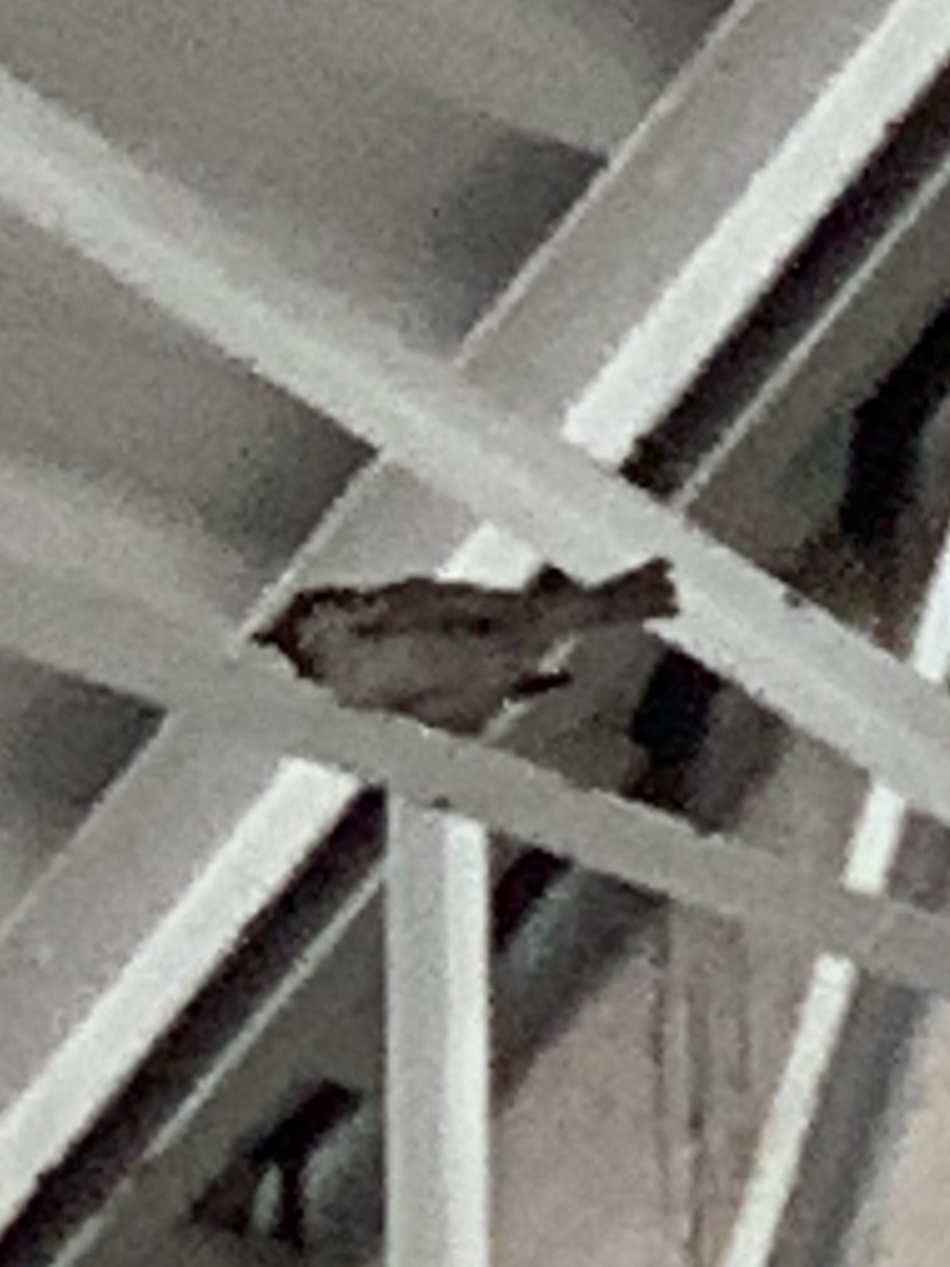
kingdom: Animalia
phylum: Chordata
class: Aves
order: Passeriformes
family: Passeridae
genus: Passer
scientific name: Passer domesticus
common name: House sparrow
